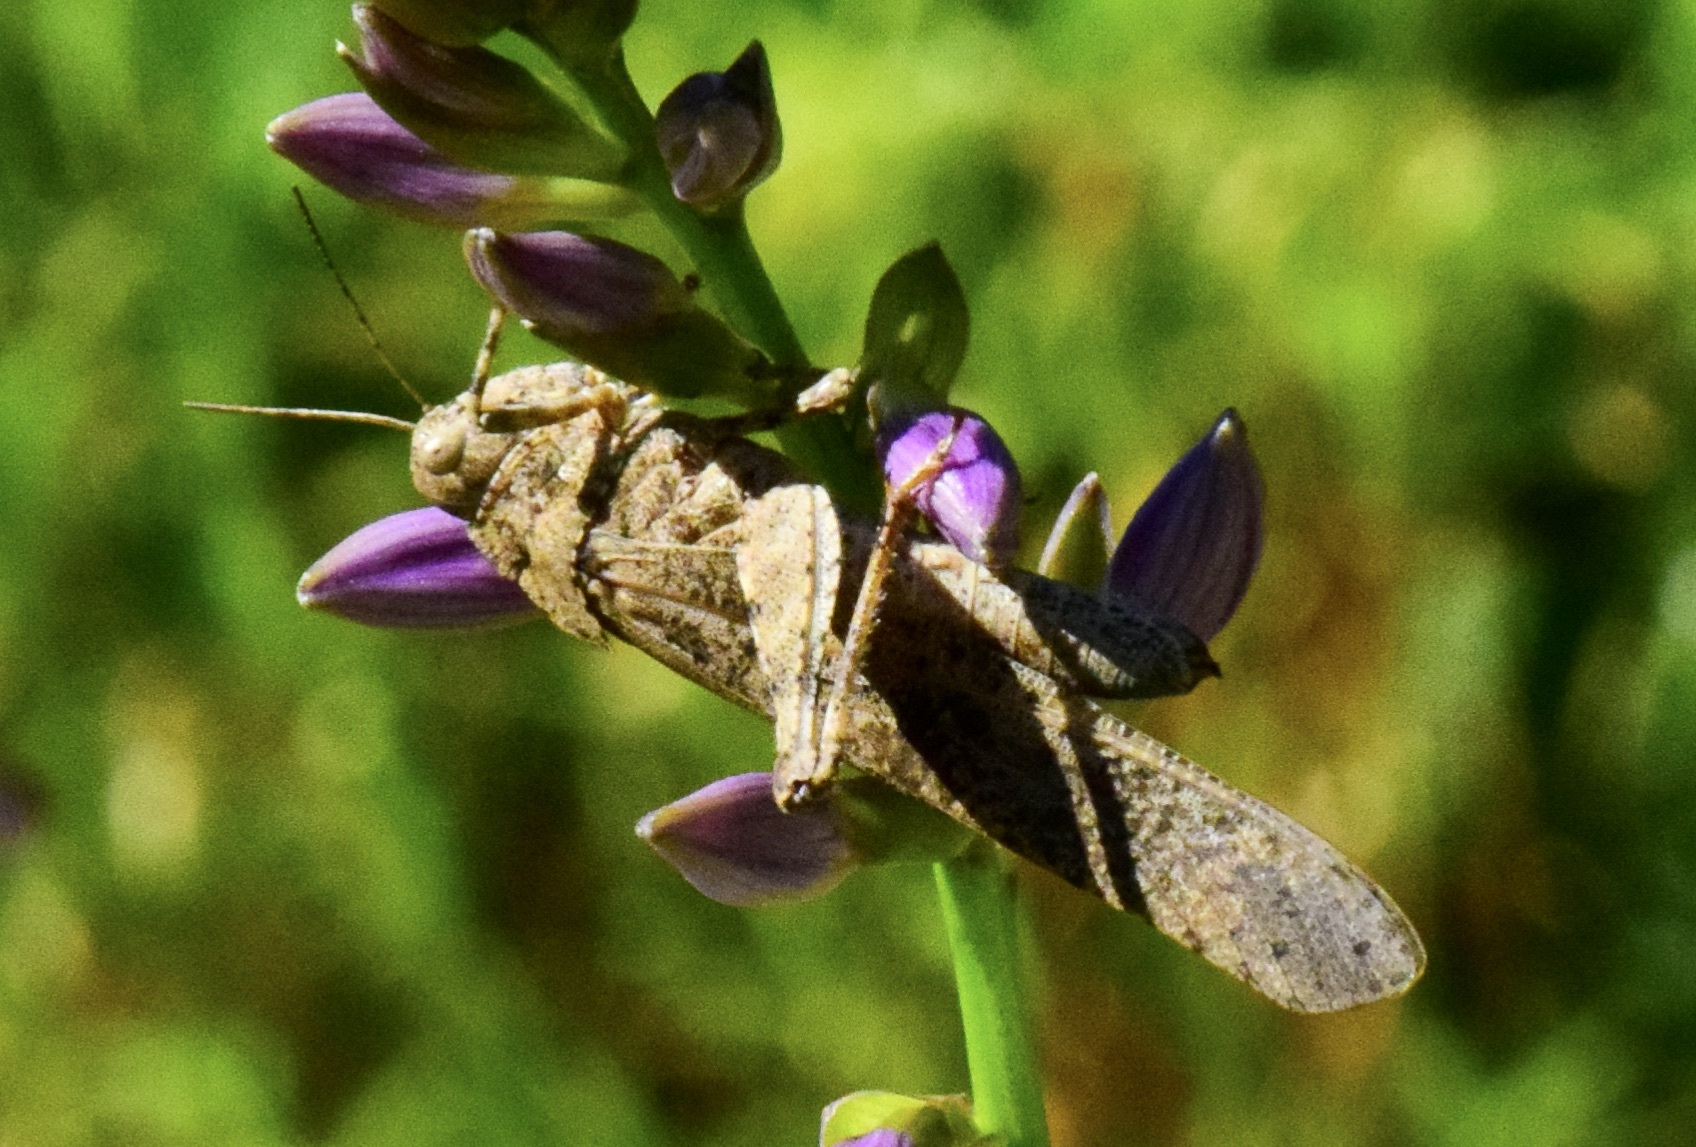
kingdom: Animalia
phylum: Arthropoda
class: Insecta
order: Orthoptera
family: Acrididae
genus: Dissosteira
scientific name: Dissosteira carolina
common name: Carolina grasshopper
